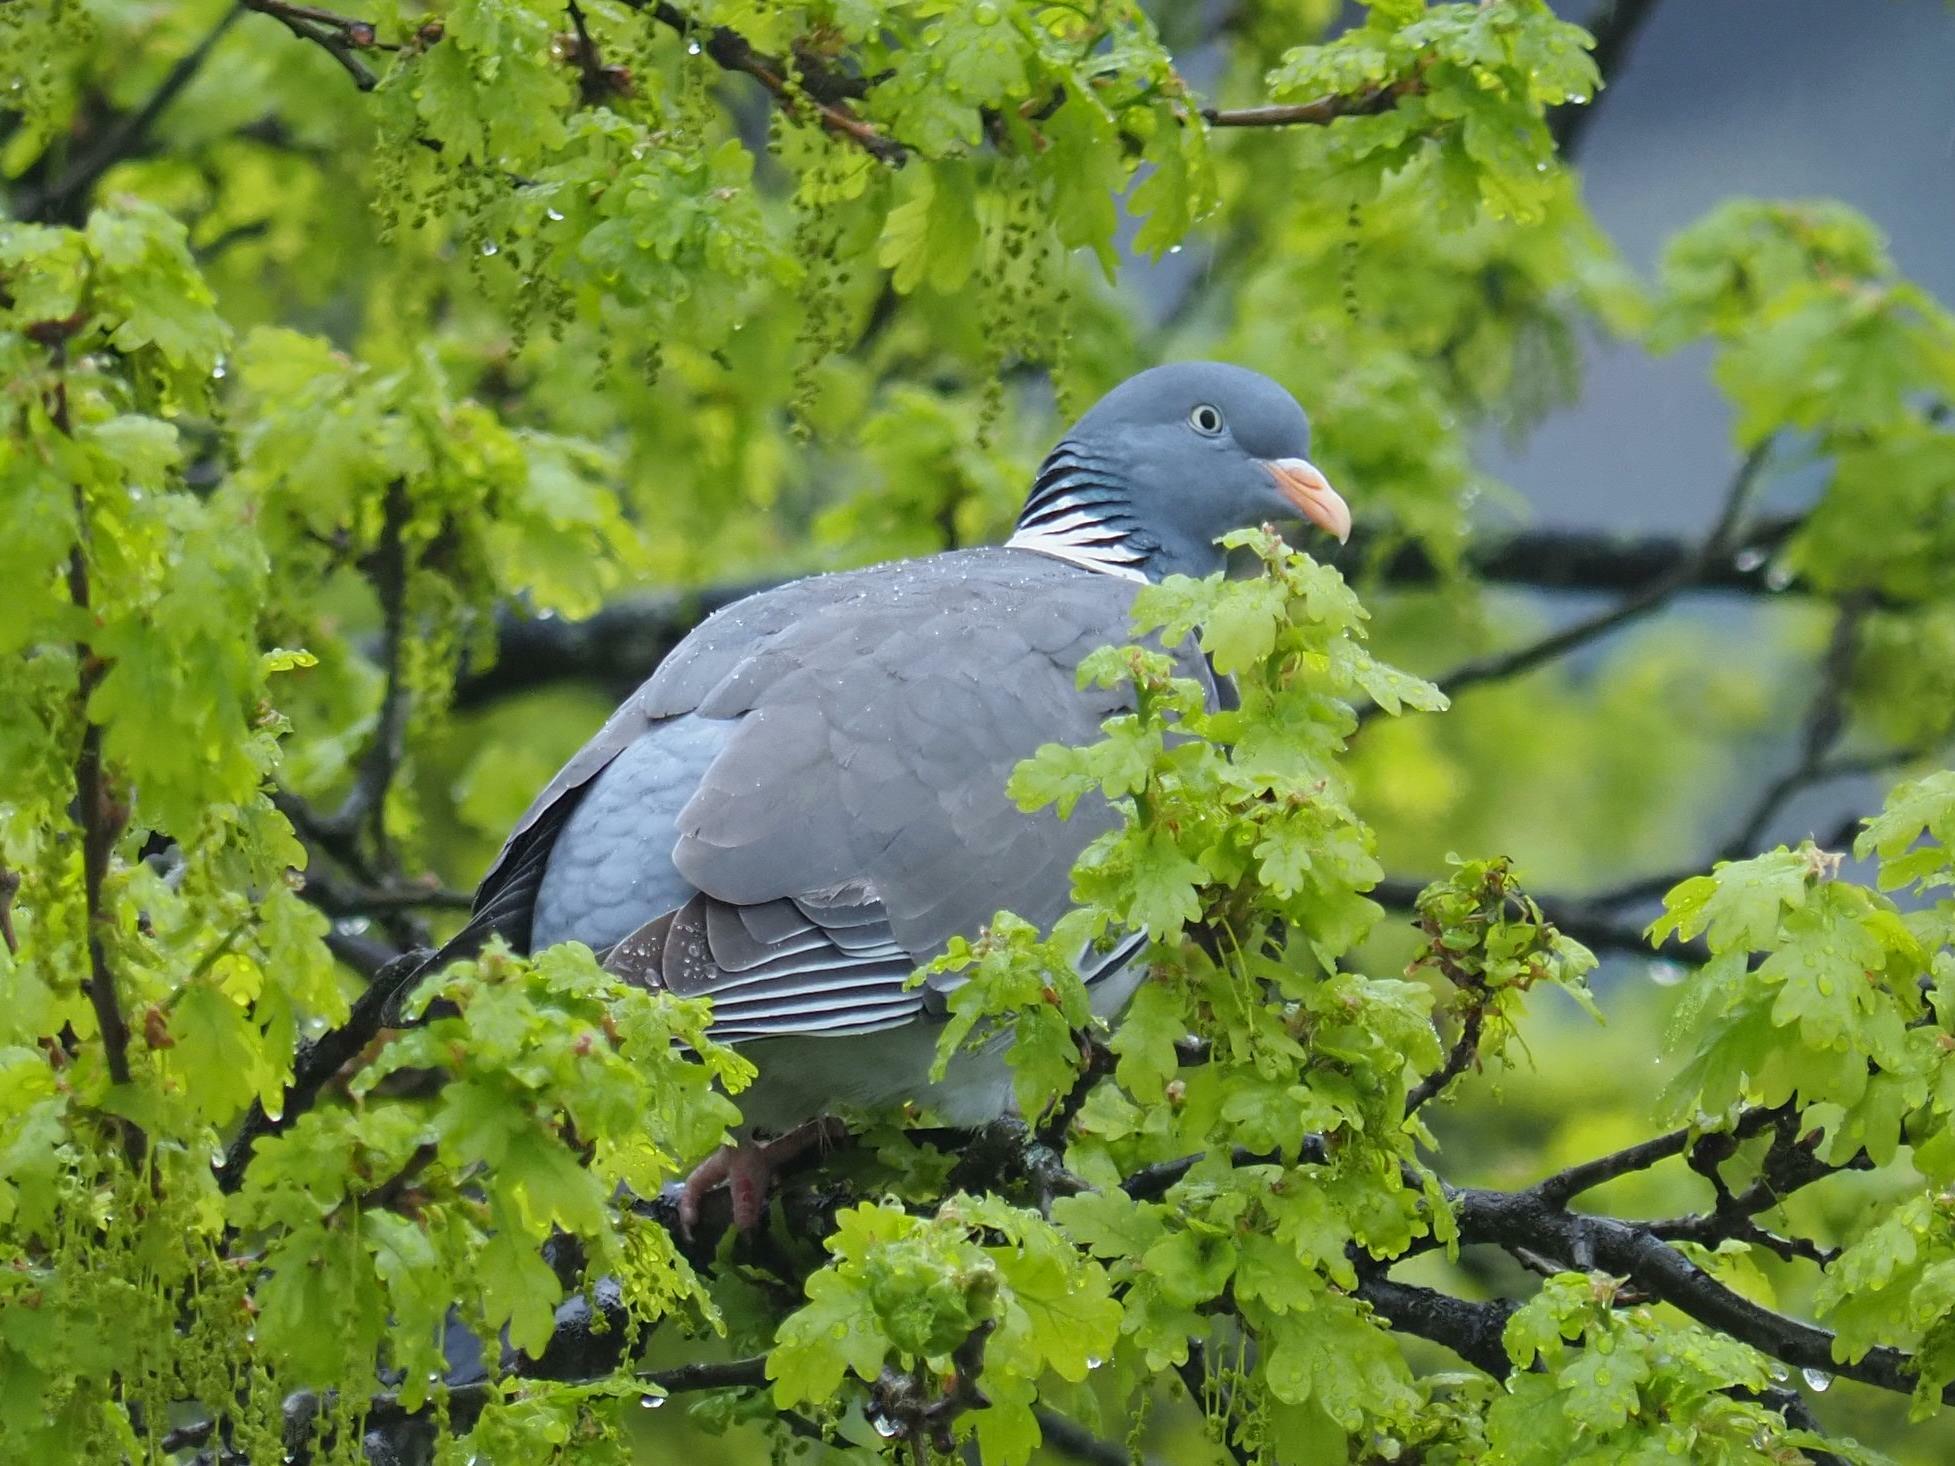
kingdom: Animalia
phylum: Chordata
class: Aves
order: Columbiformes
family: Columbidae
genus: Columba
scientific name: Columba palumbus
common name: Common wood pigeon
